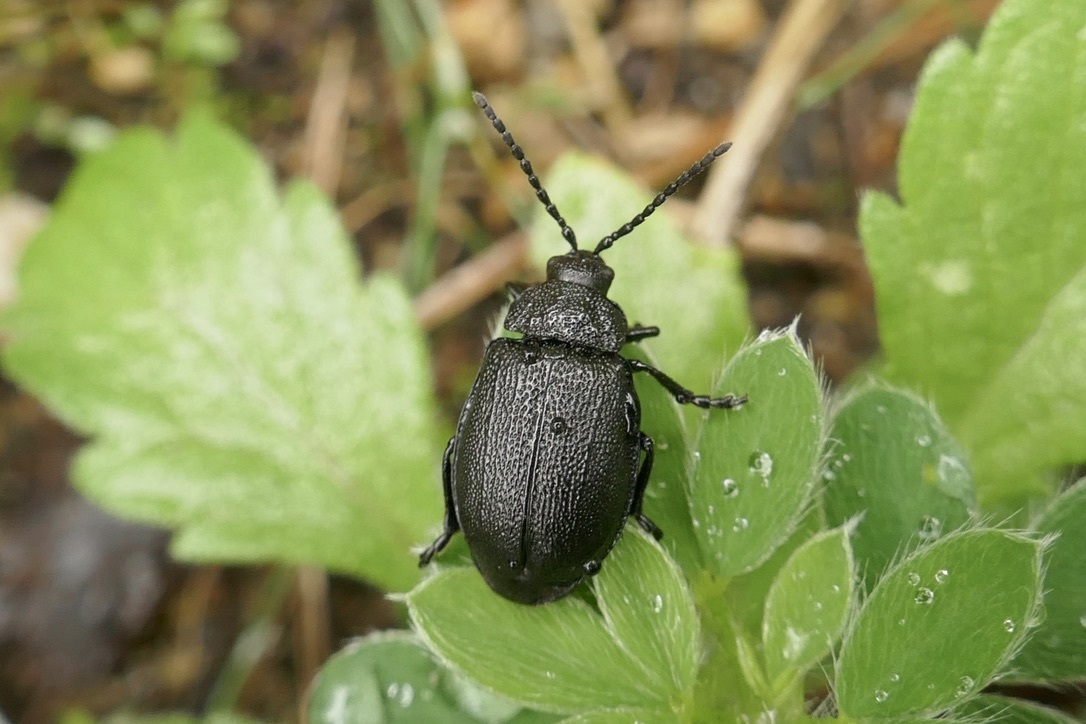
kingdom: Animalia
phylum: Arthropoda
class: Insecta
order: Coleoptera
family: Chrysomelidae
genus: Galeruca
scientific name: Galeruca tanaceti
